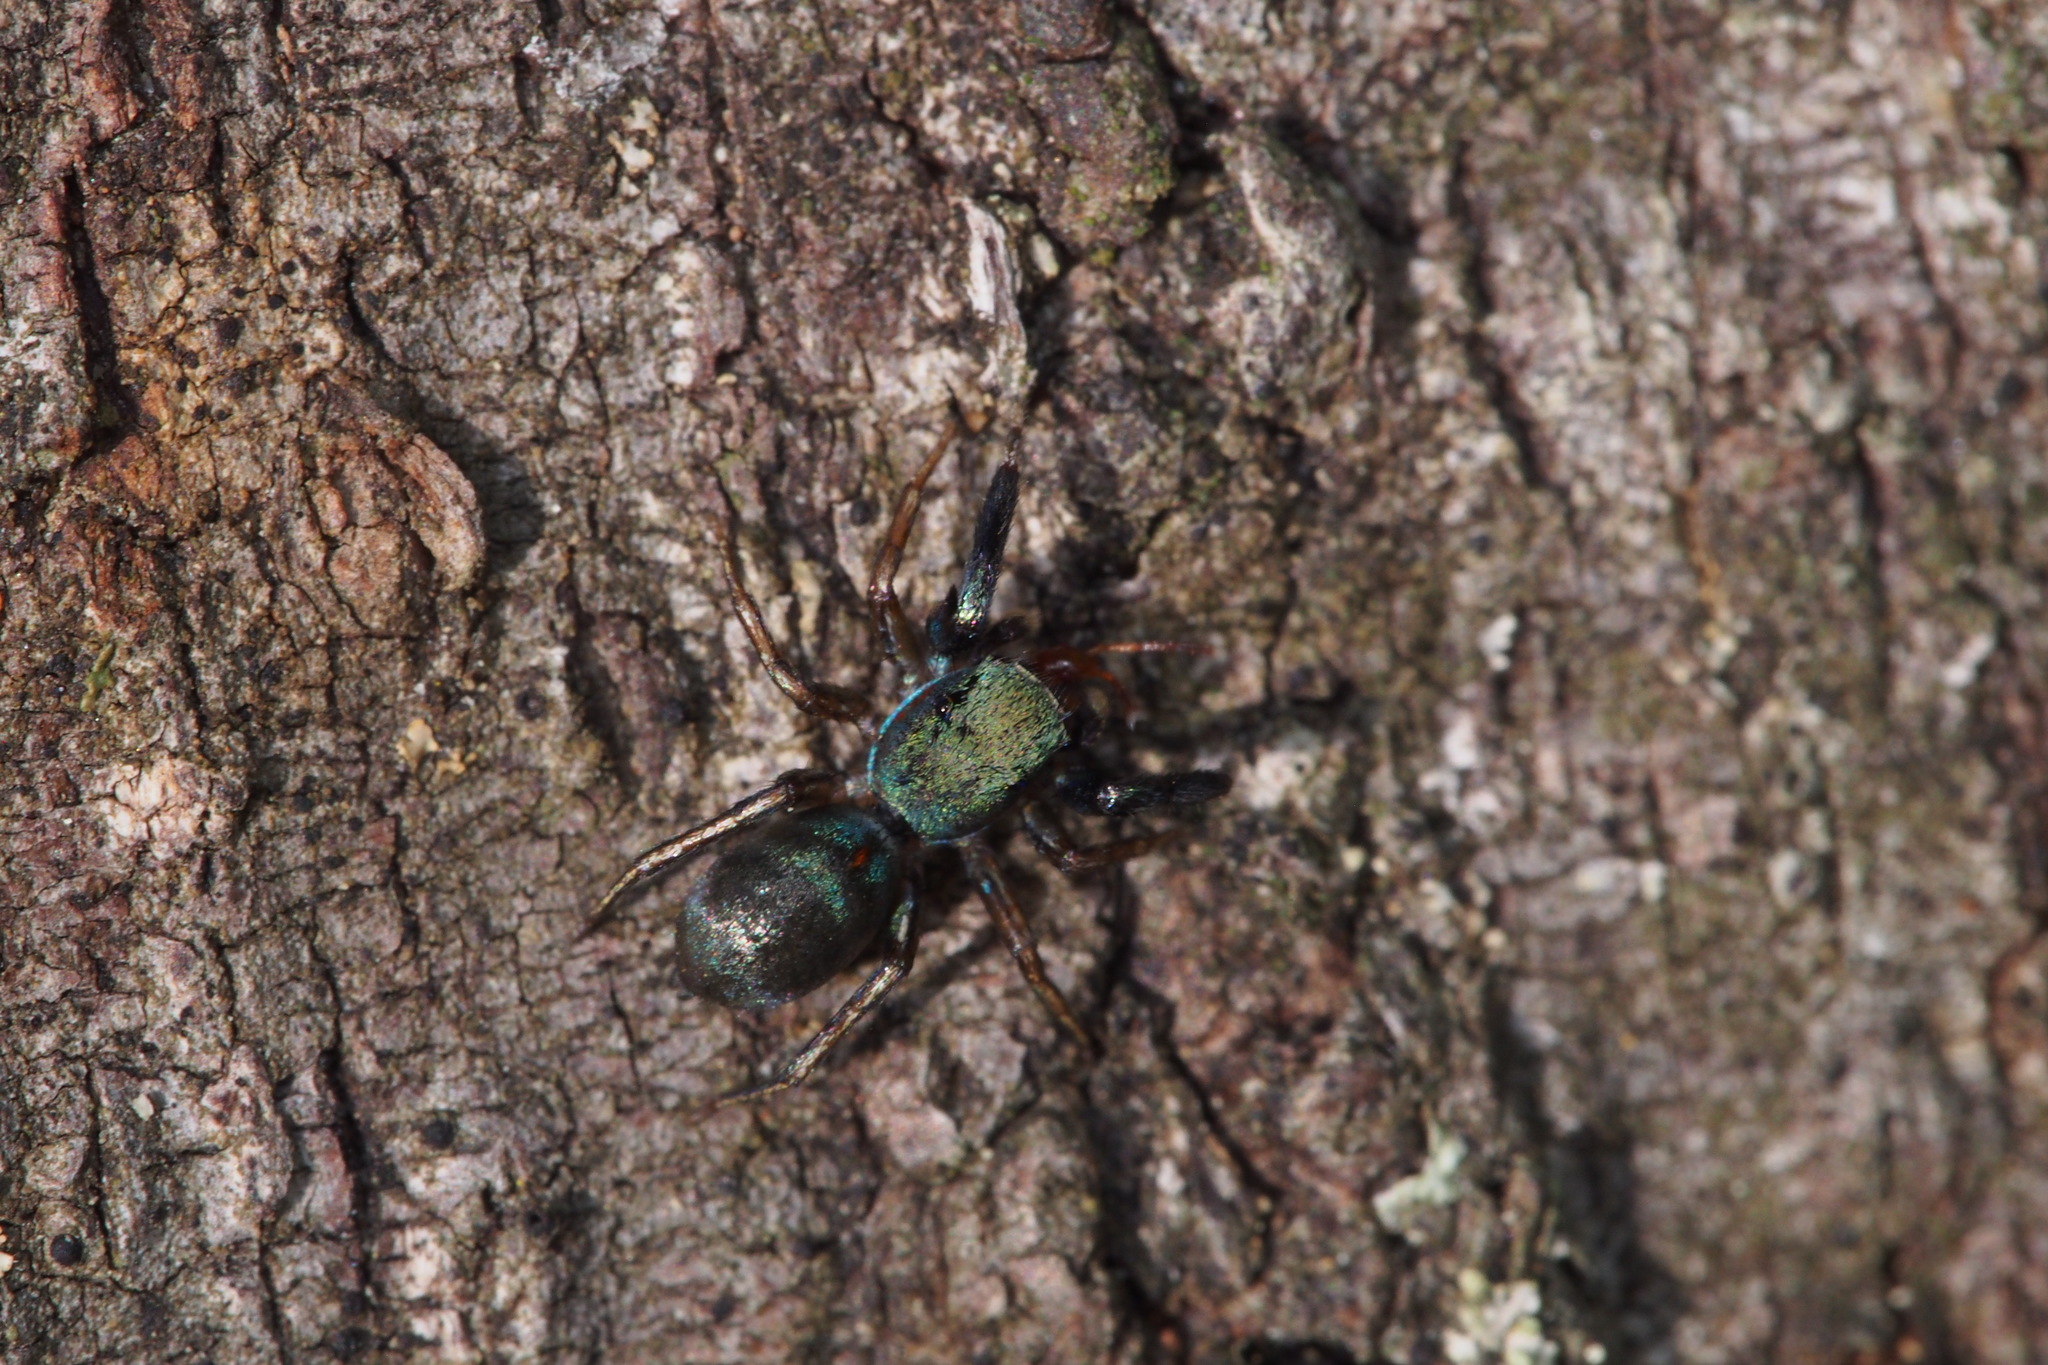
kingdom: Animalia
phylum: Arthropoda
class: Arachnida
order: Araneae
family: Salticidae
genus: Siler
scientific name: Siler cupreus
